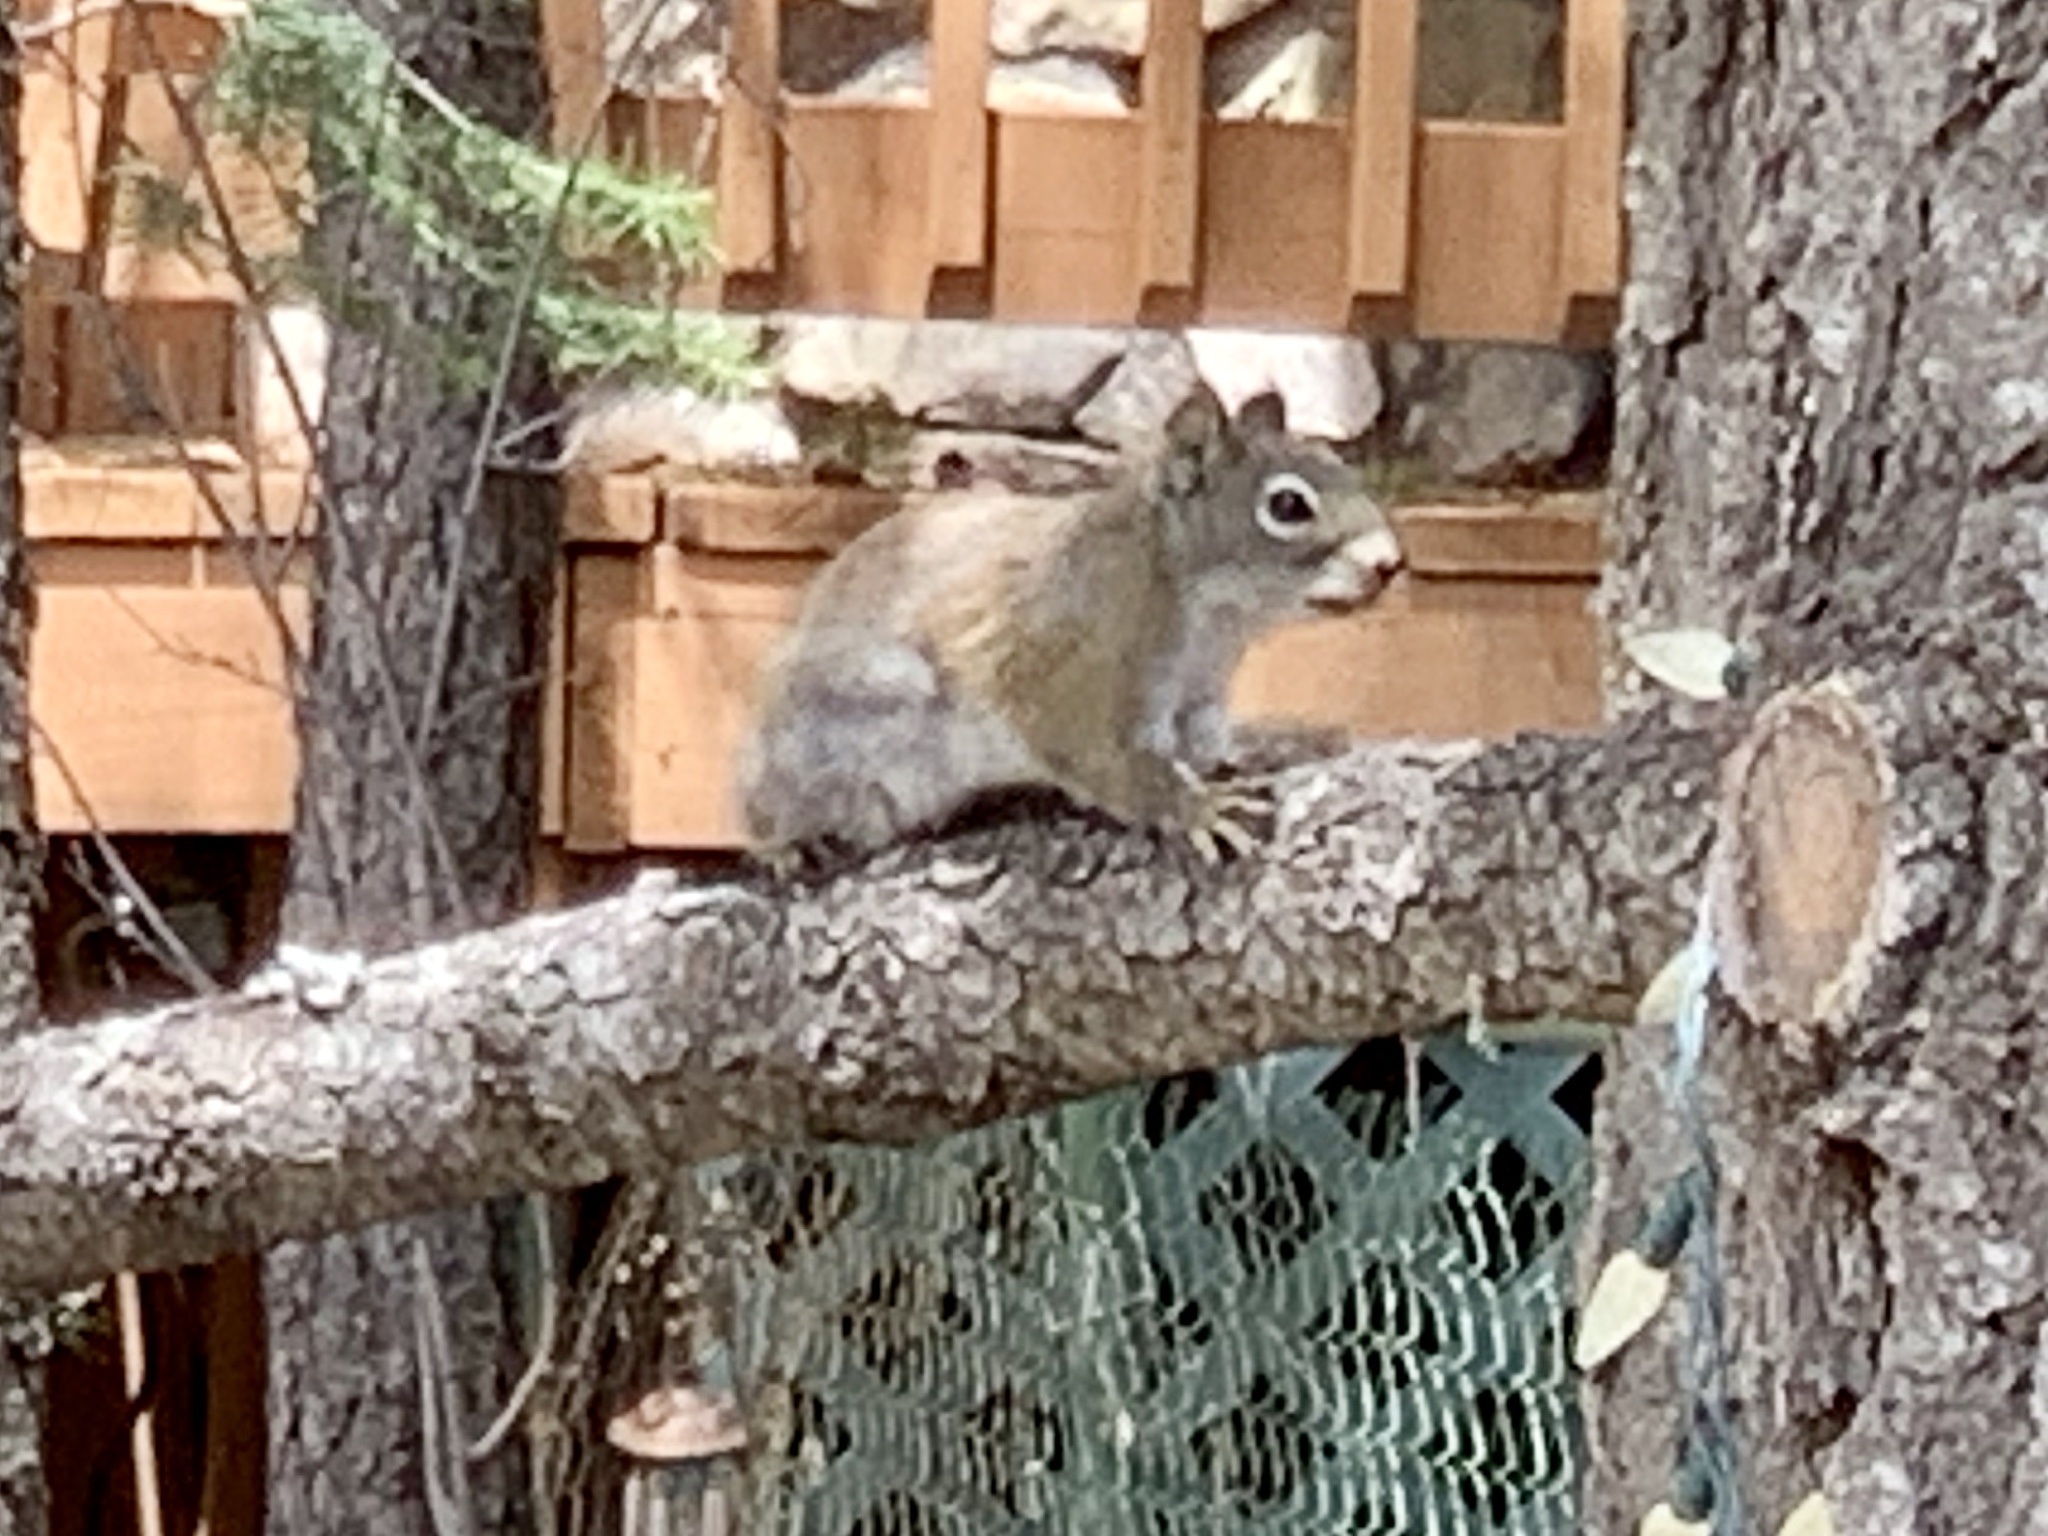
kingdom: Animalia
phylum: Chordata
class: Mammalia
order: Rodentia
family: Sciuridae
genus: Tamiasciurus
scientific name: Tamiasciurus hudsonicus
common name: Red squirrel
